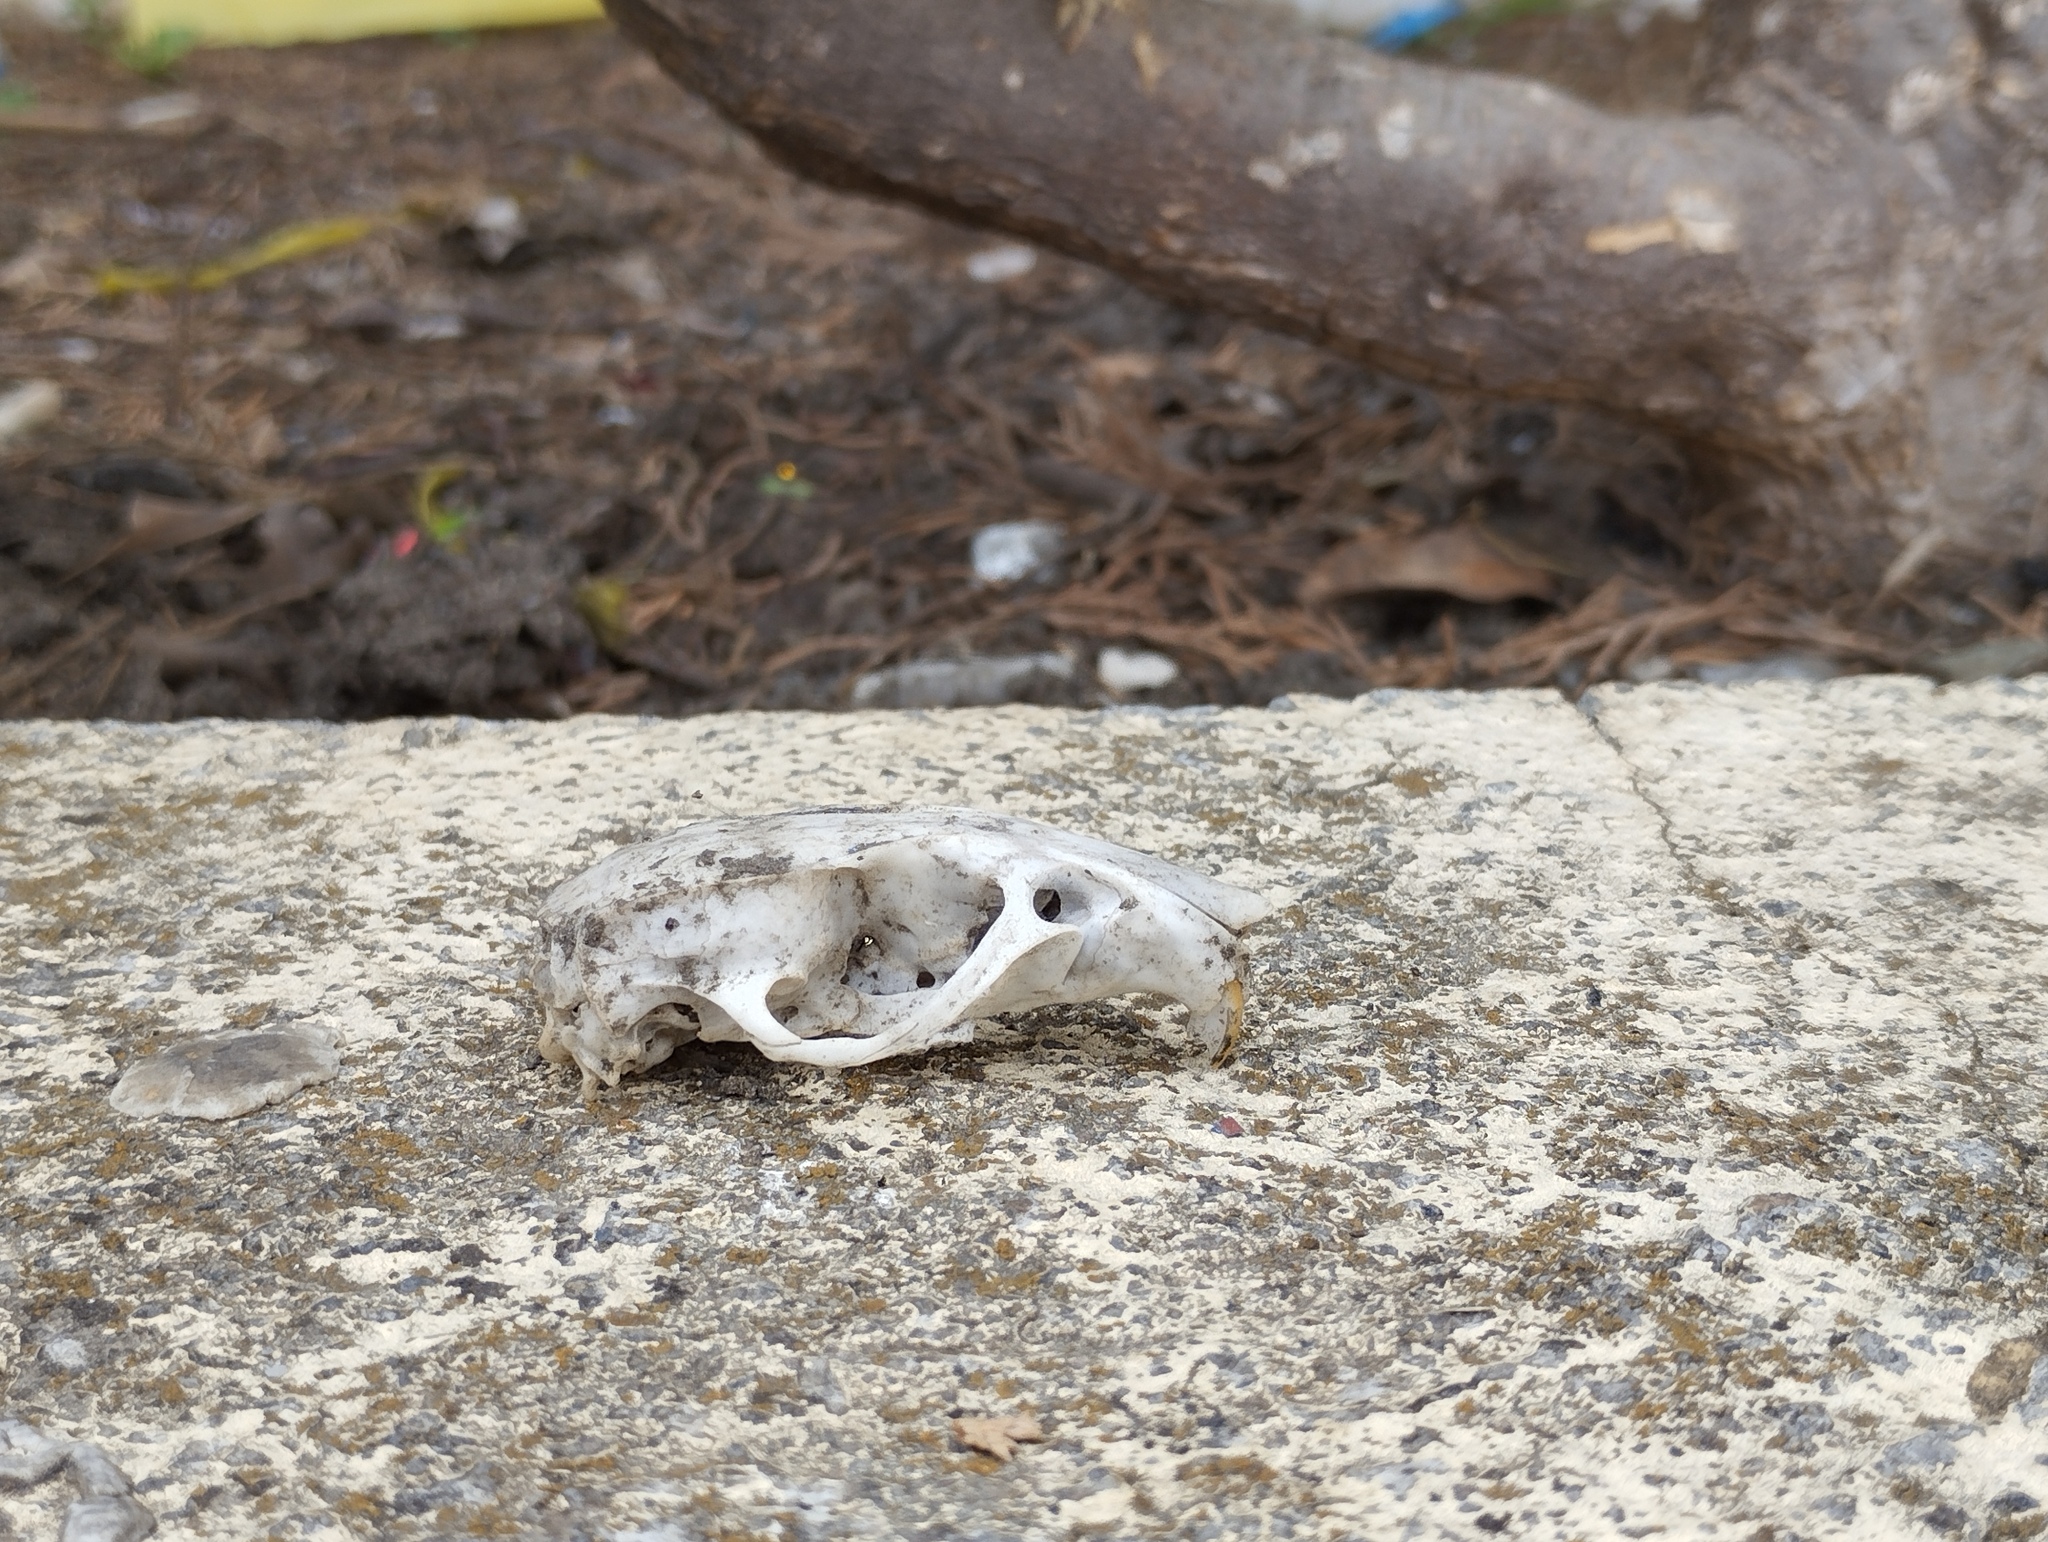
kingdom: Animalia
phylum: Chordata
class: Mammalia
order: Rodentia
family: Muridae
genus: Rattus
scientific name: Rattus rattus
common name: Black rat
